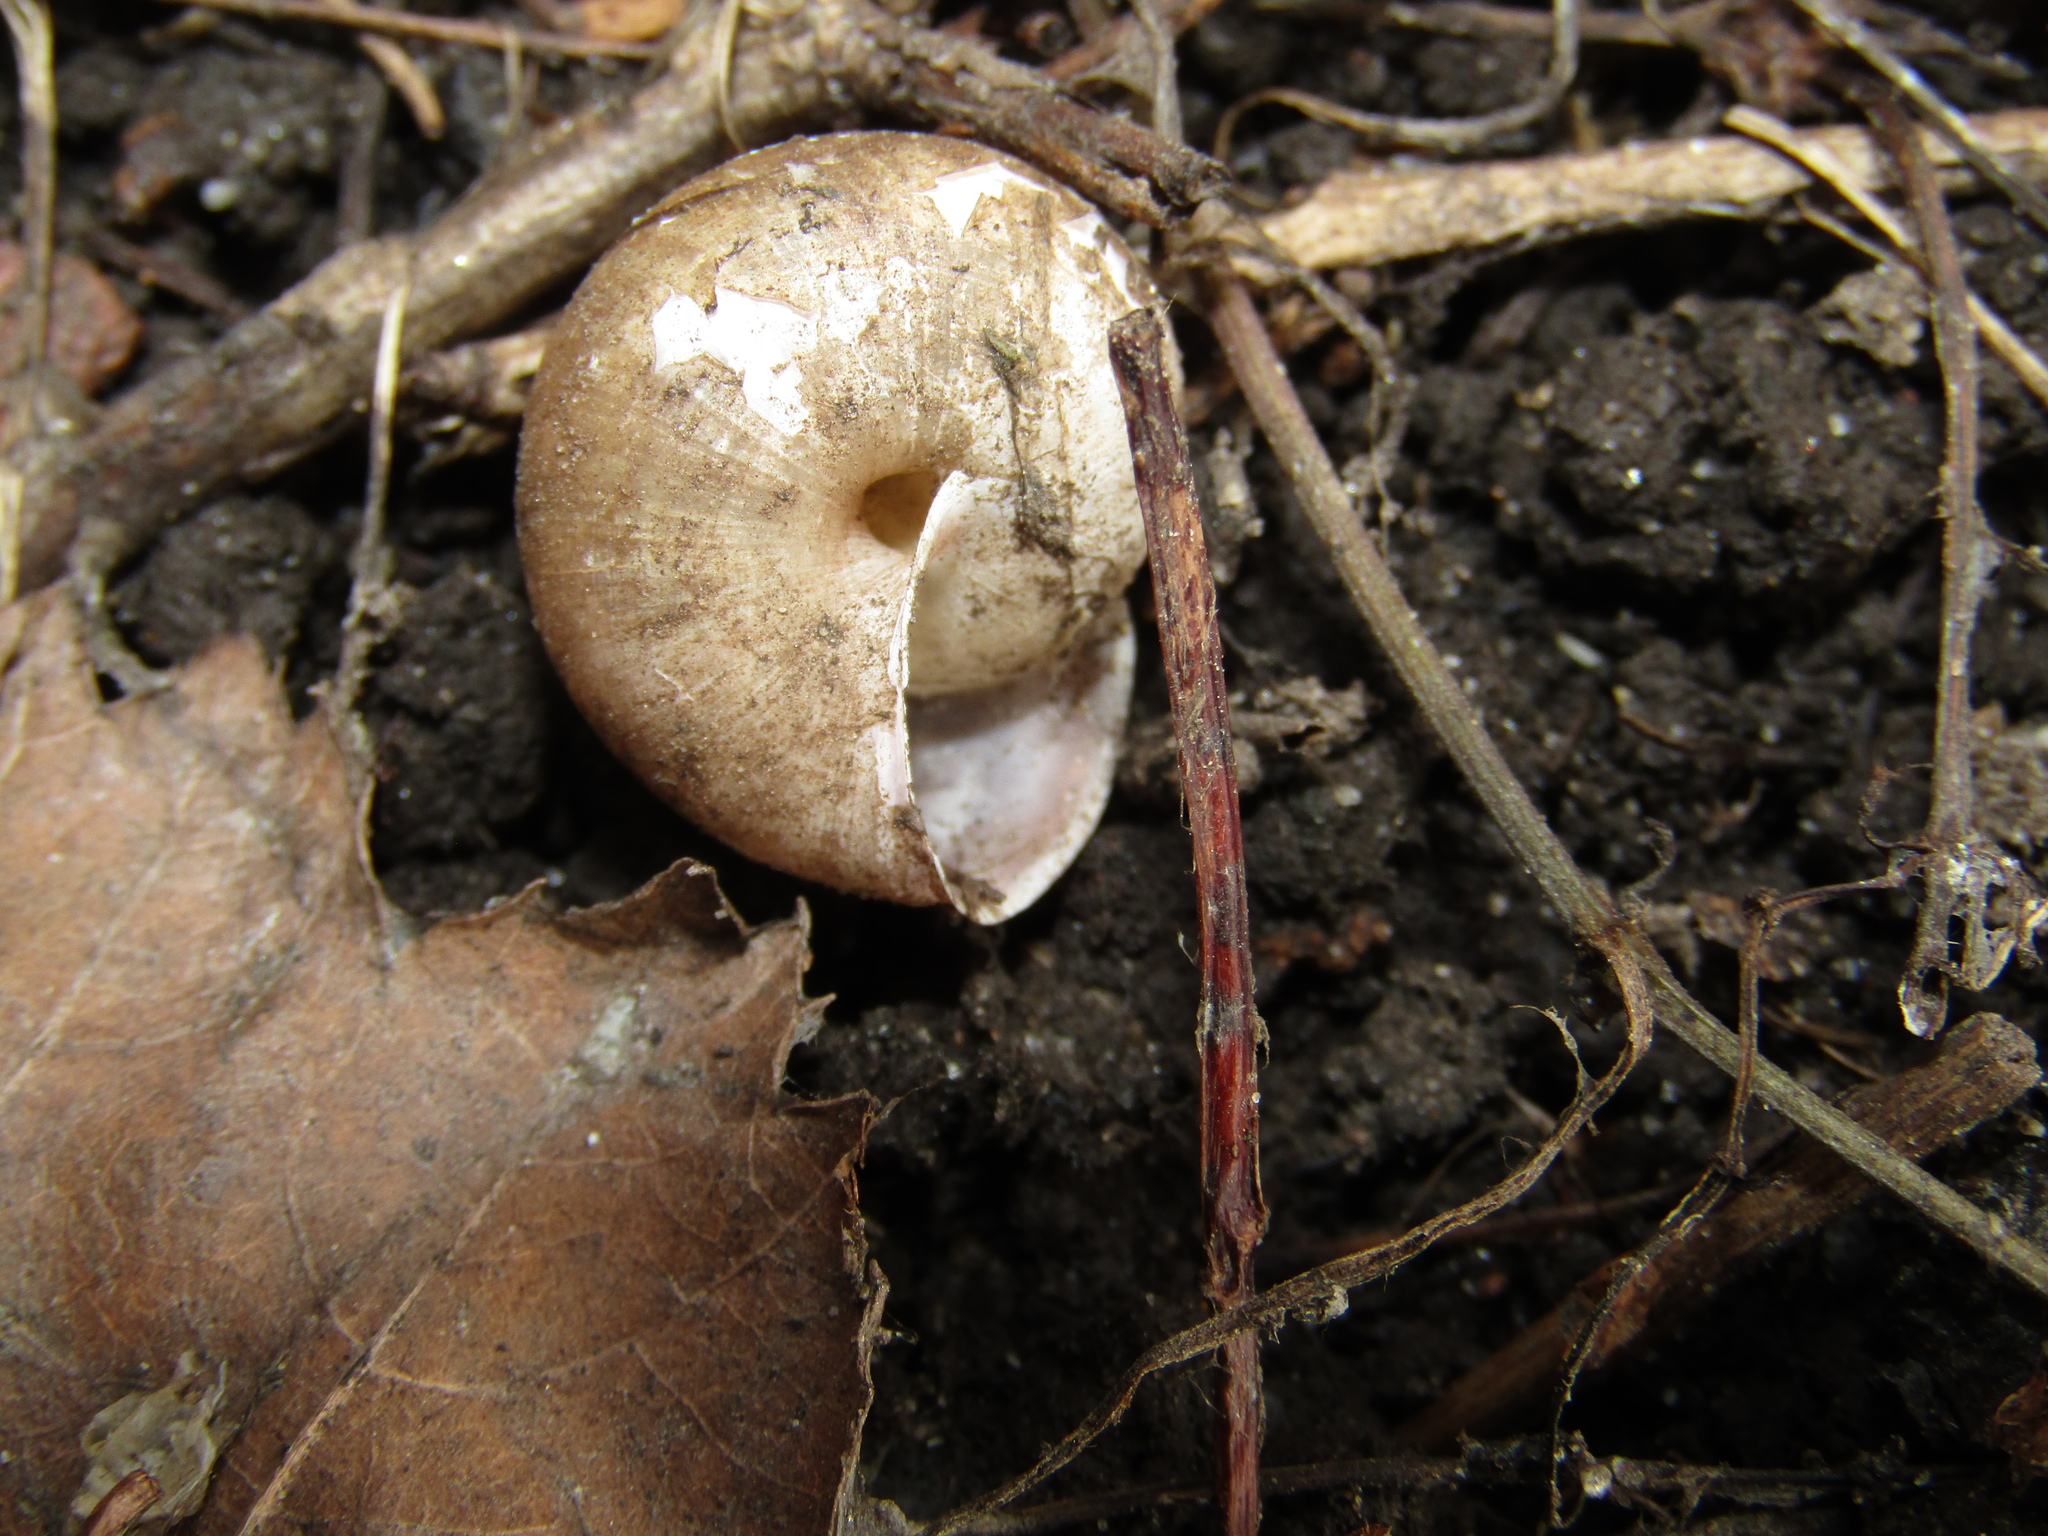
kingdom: Animalia
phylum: Mollusca
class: Gastropoda
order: Stylommatophora
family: Camaenidae
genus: Fruticicola
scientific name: Fruticicola fruticum
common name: Bush snail
